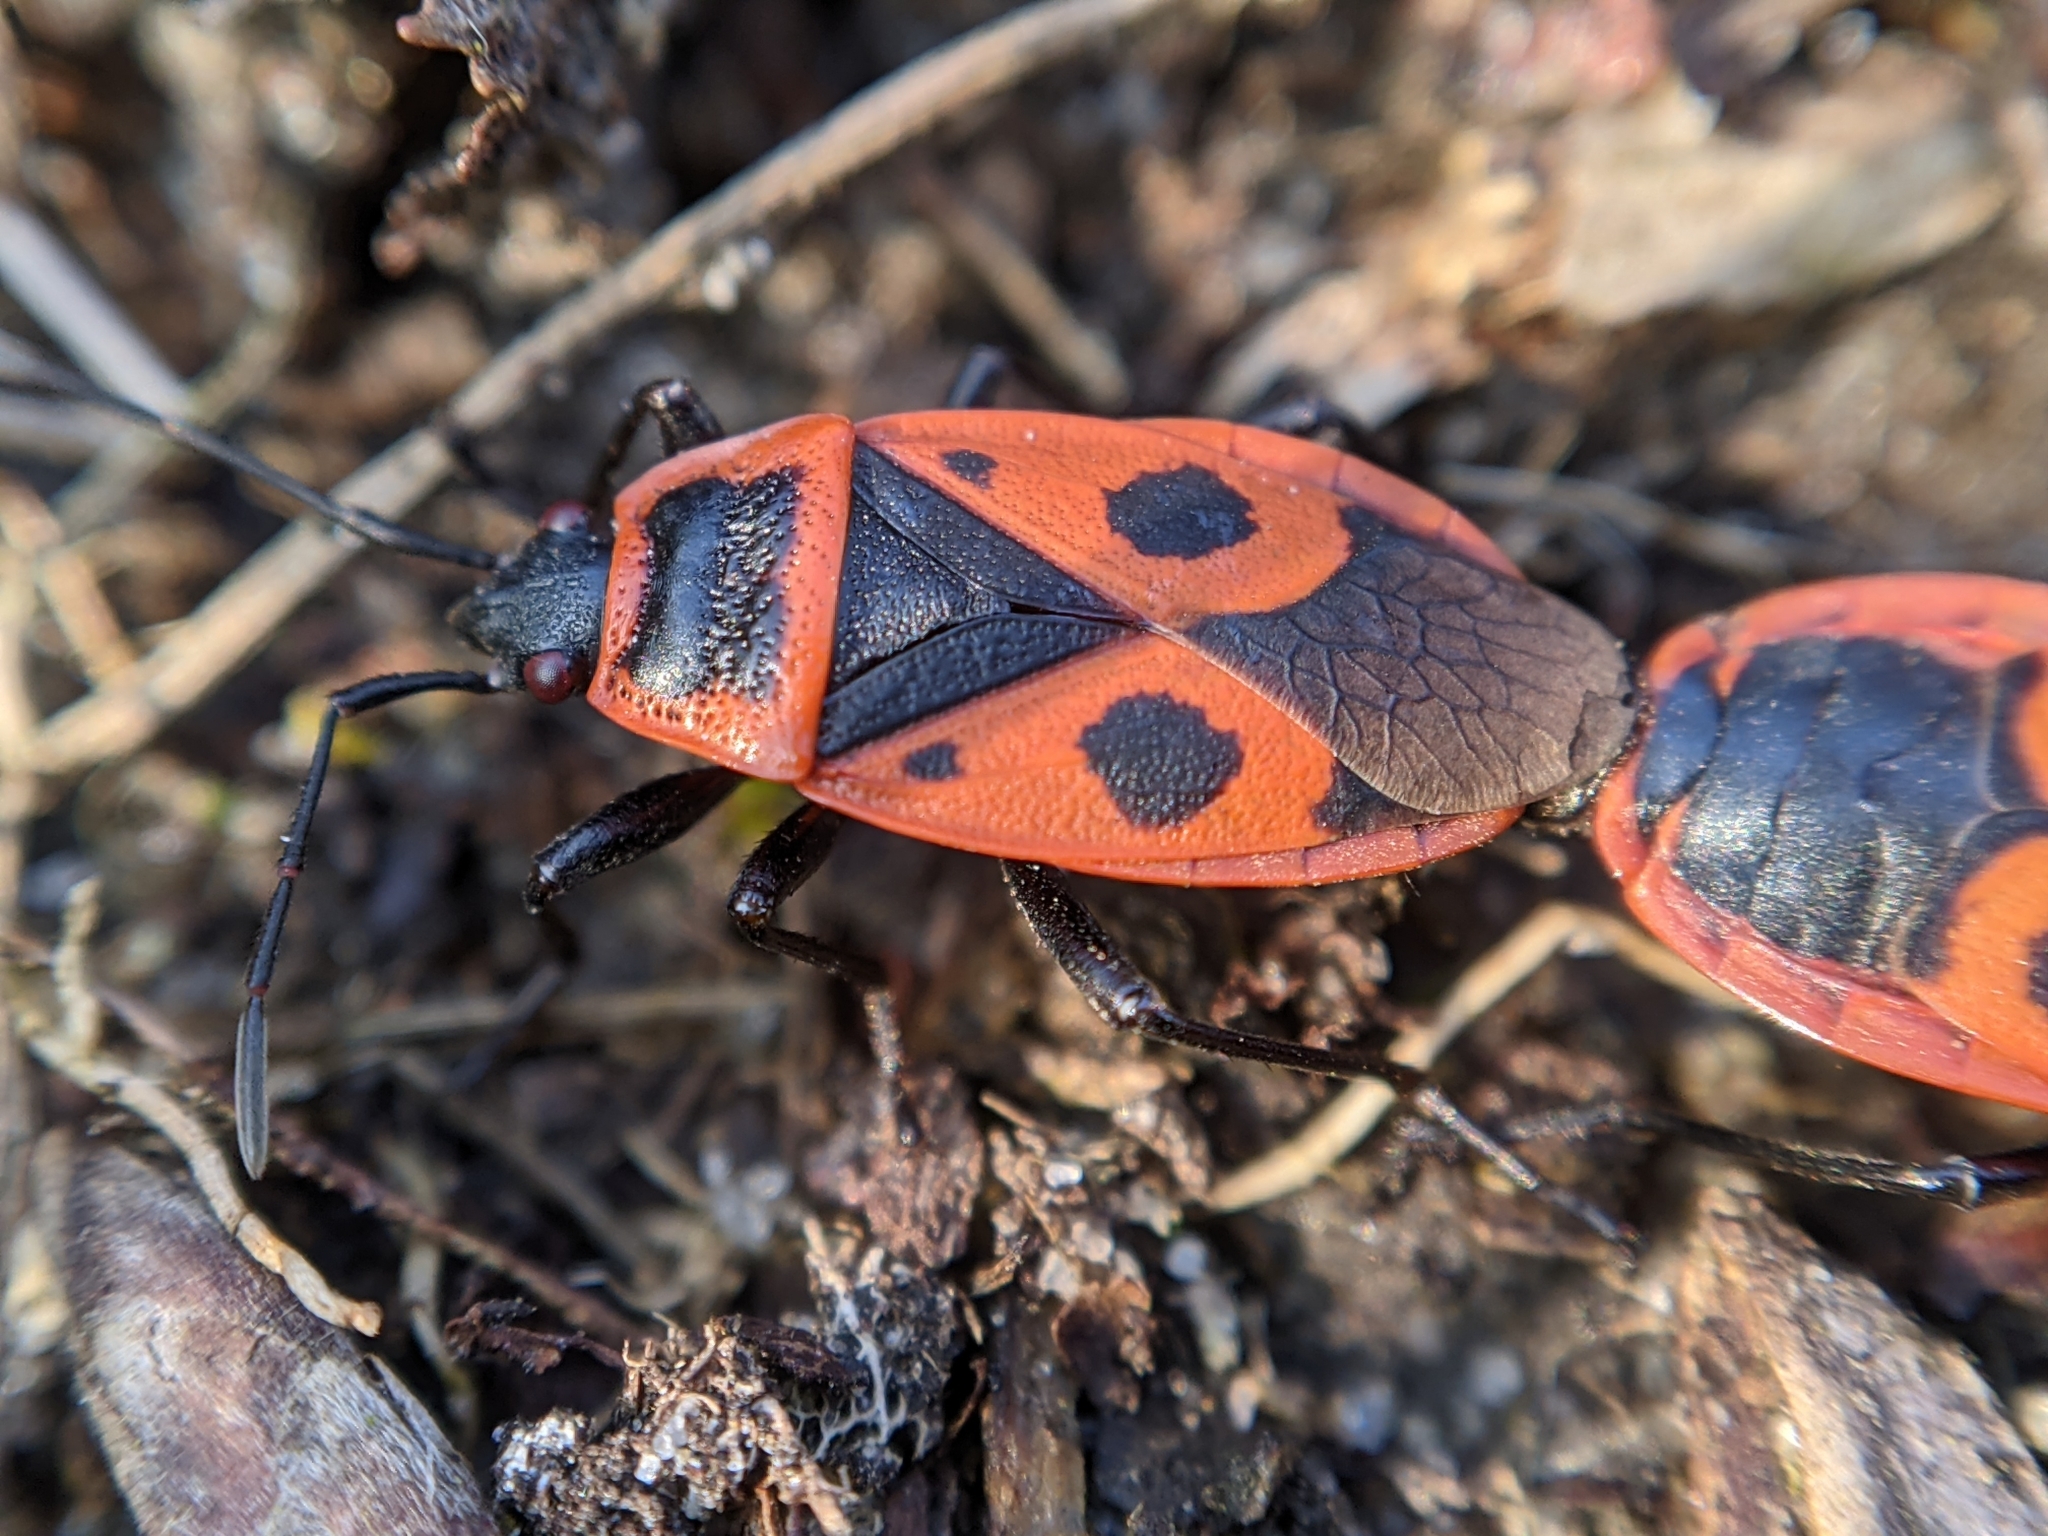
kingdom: Animalia
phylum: Arthropoda
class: Insecta
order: Hemiptera
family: Pyrrhocoridae
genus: Pyrrhocoris
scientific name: Pyrrhocoris apterus
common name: Firebug
